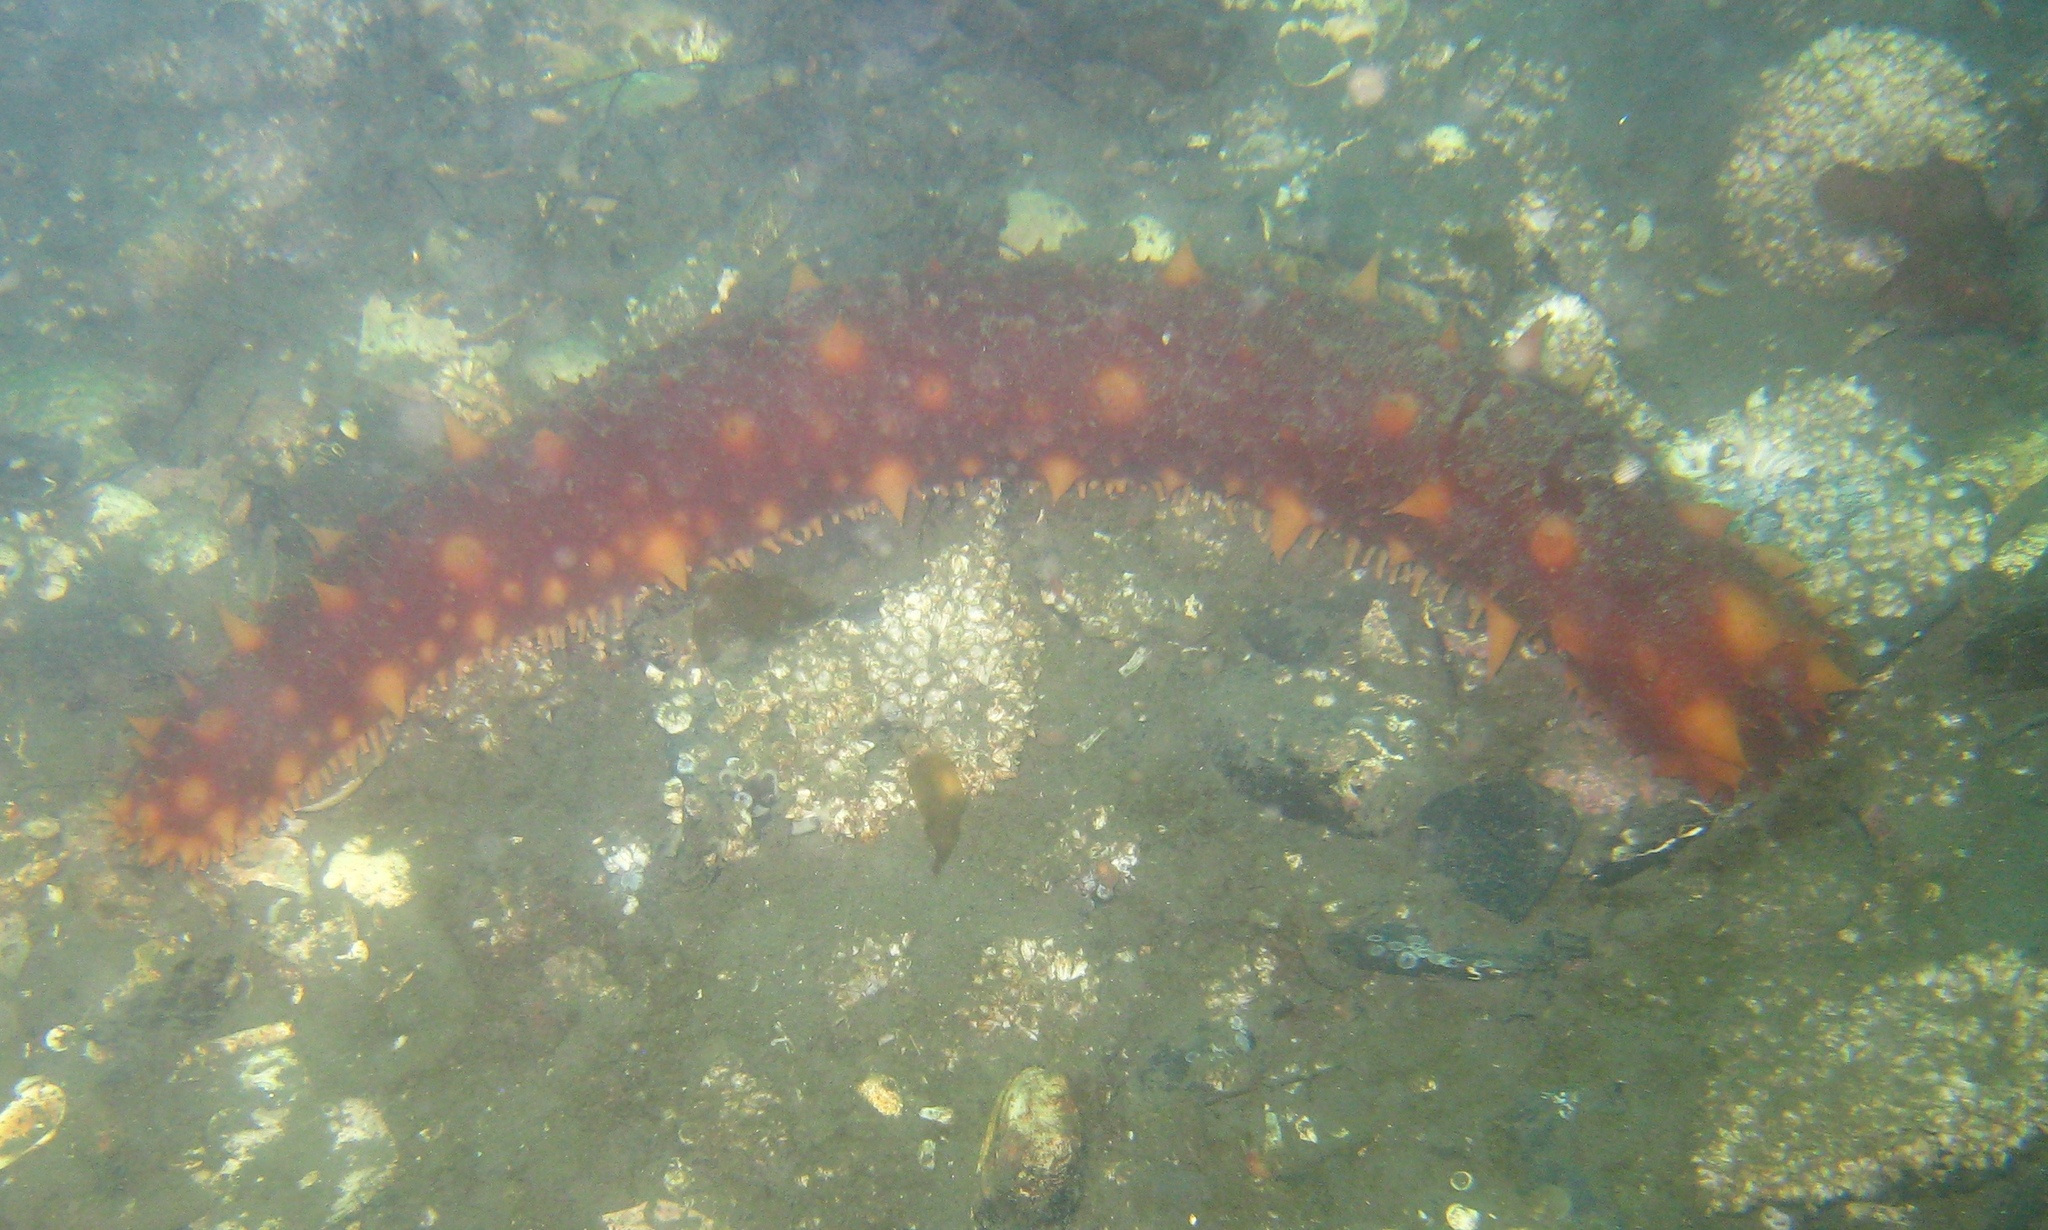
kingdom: Animalia
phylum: Echinodermata
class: Holothuroidea
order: Synallactida
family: Stichopodidae
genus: Apostichopus
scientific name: Apostichopus californicus
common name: California sea cucumber
